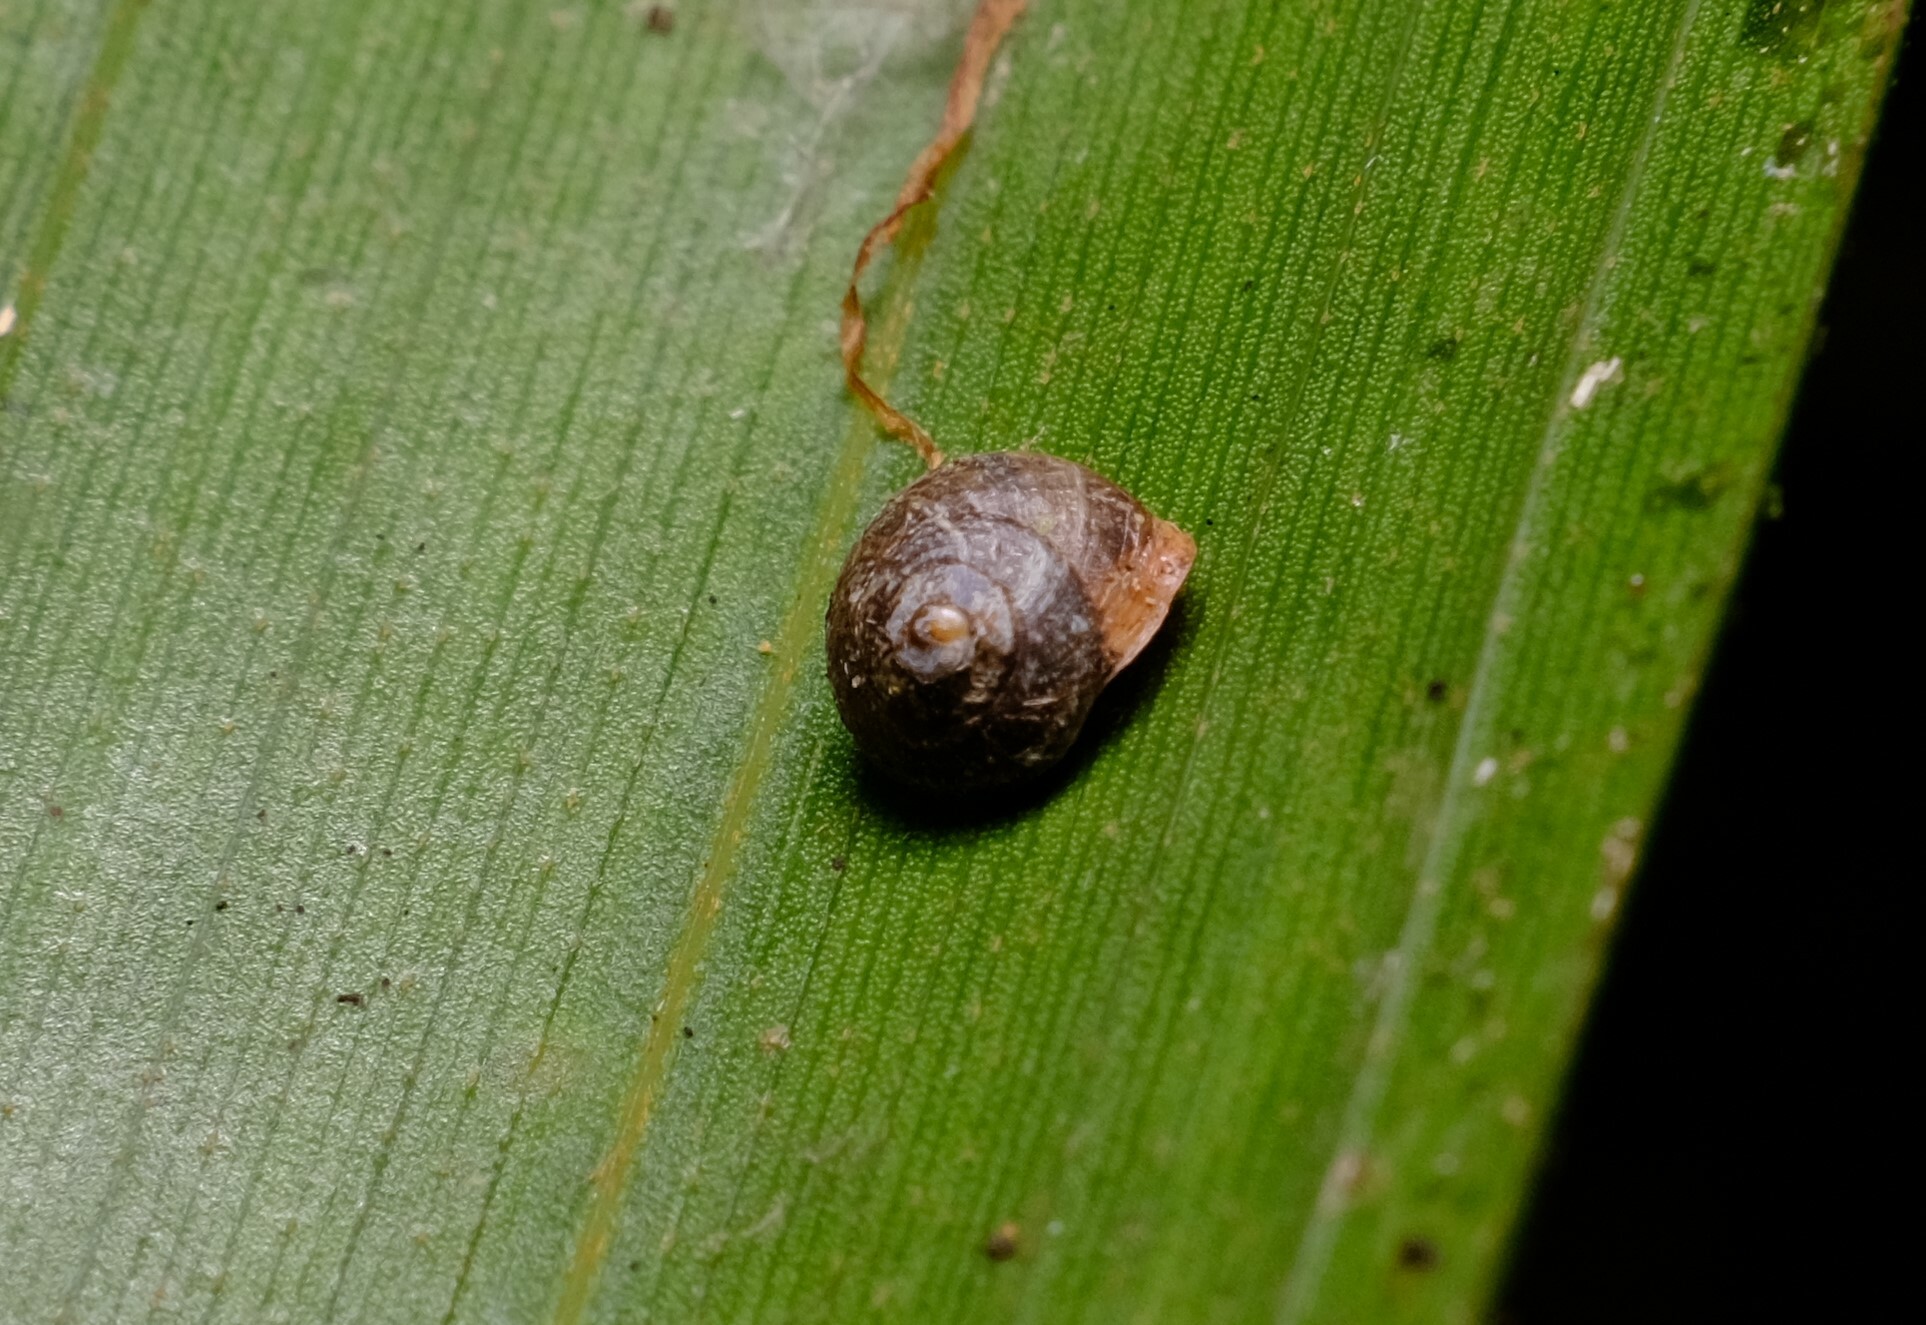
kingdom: Animalia
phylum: Mollusca
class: Gastropoda
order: Cycloneritida
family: Helicinidae
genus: Pleuropoma
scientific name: Pleuropoma jana
